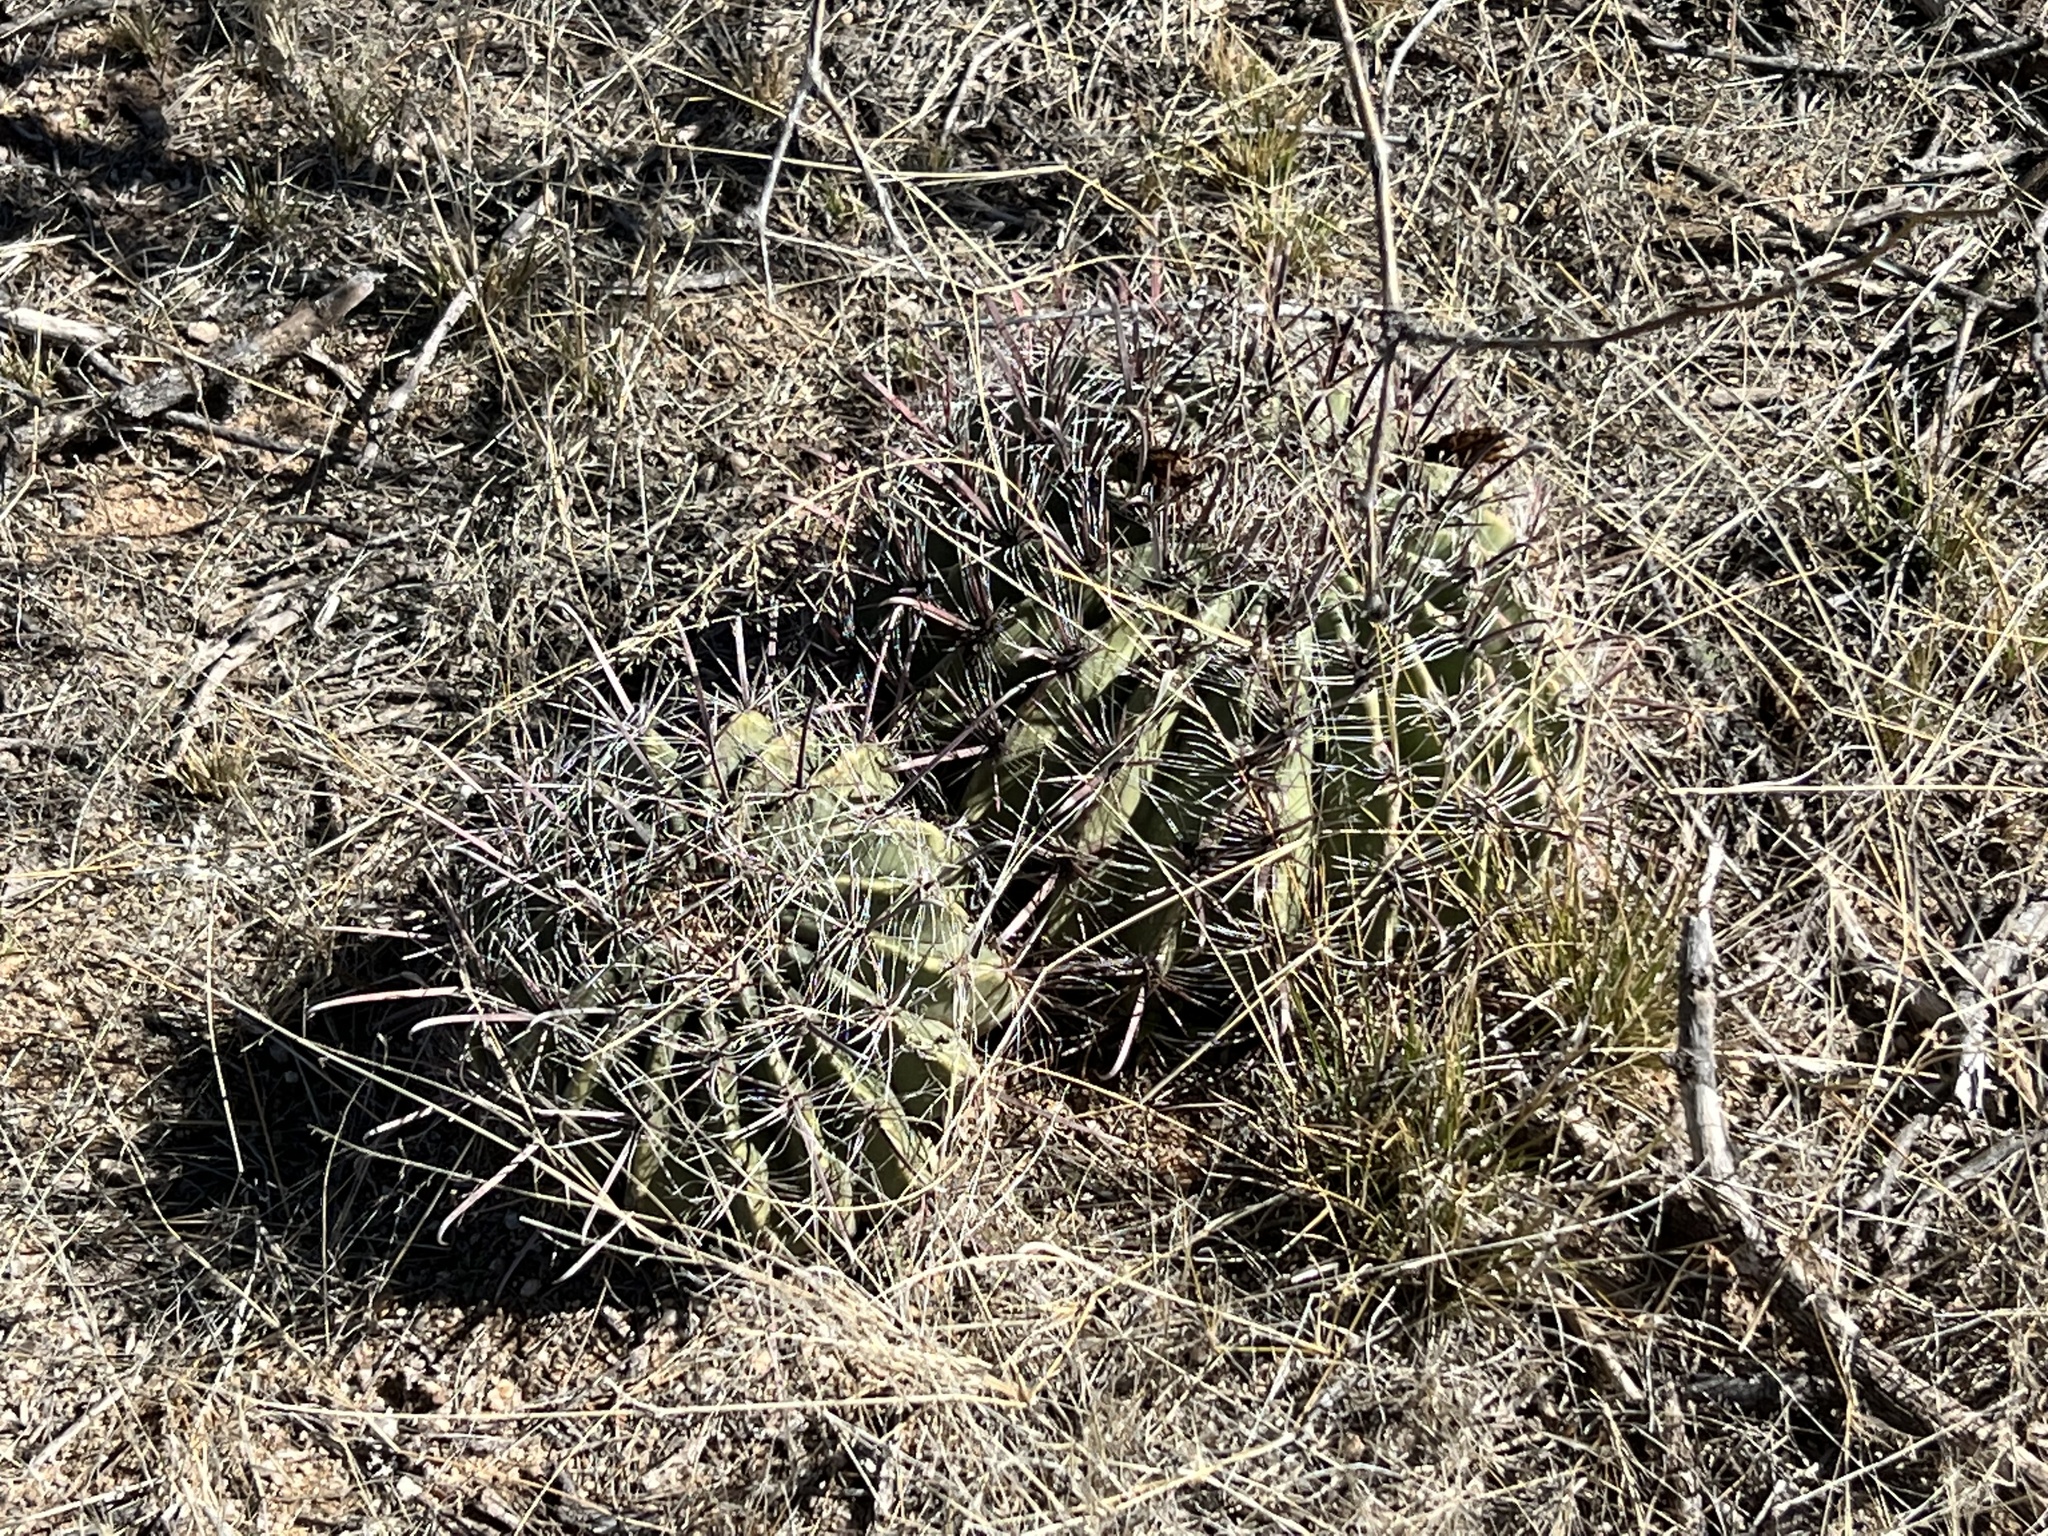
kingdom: Plantae
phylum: Tracheophyta
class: Magnoliopsida
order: Caryophyllales
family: Cactaceae
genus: Ferocactus
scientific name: Ferocactus wislizeni
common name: Candy barrel cactus
